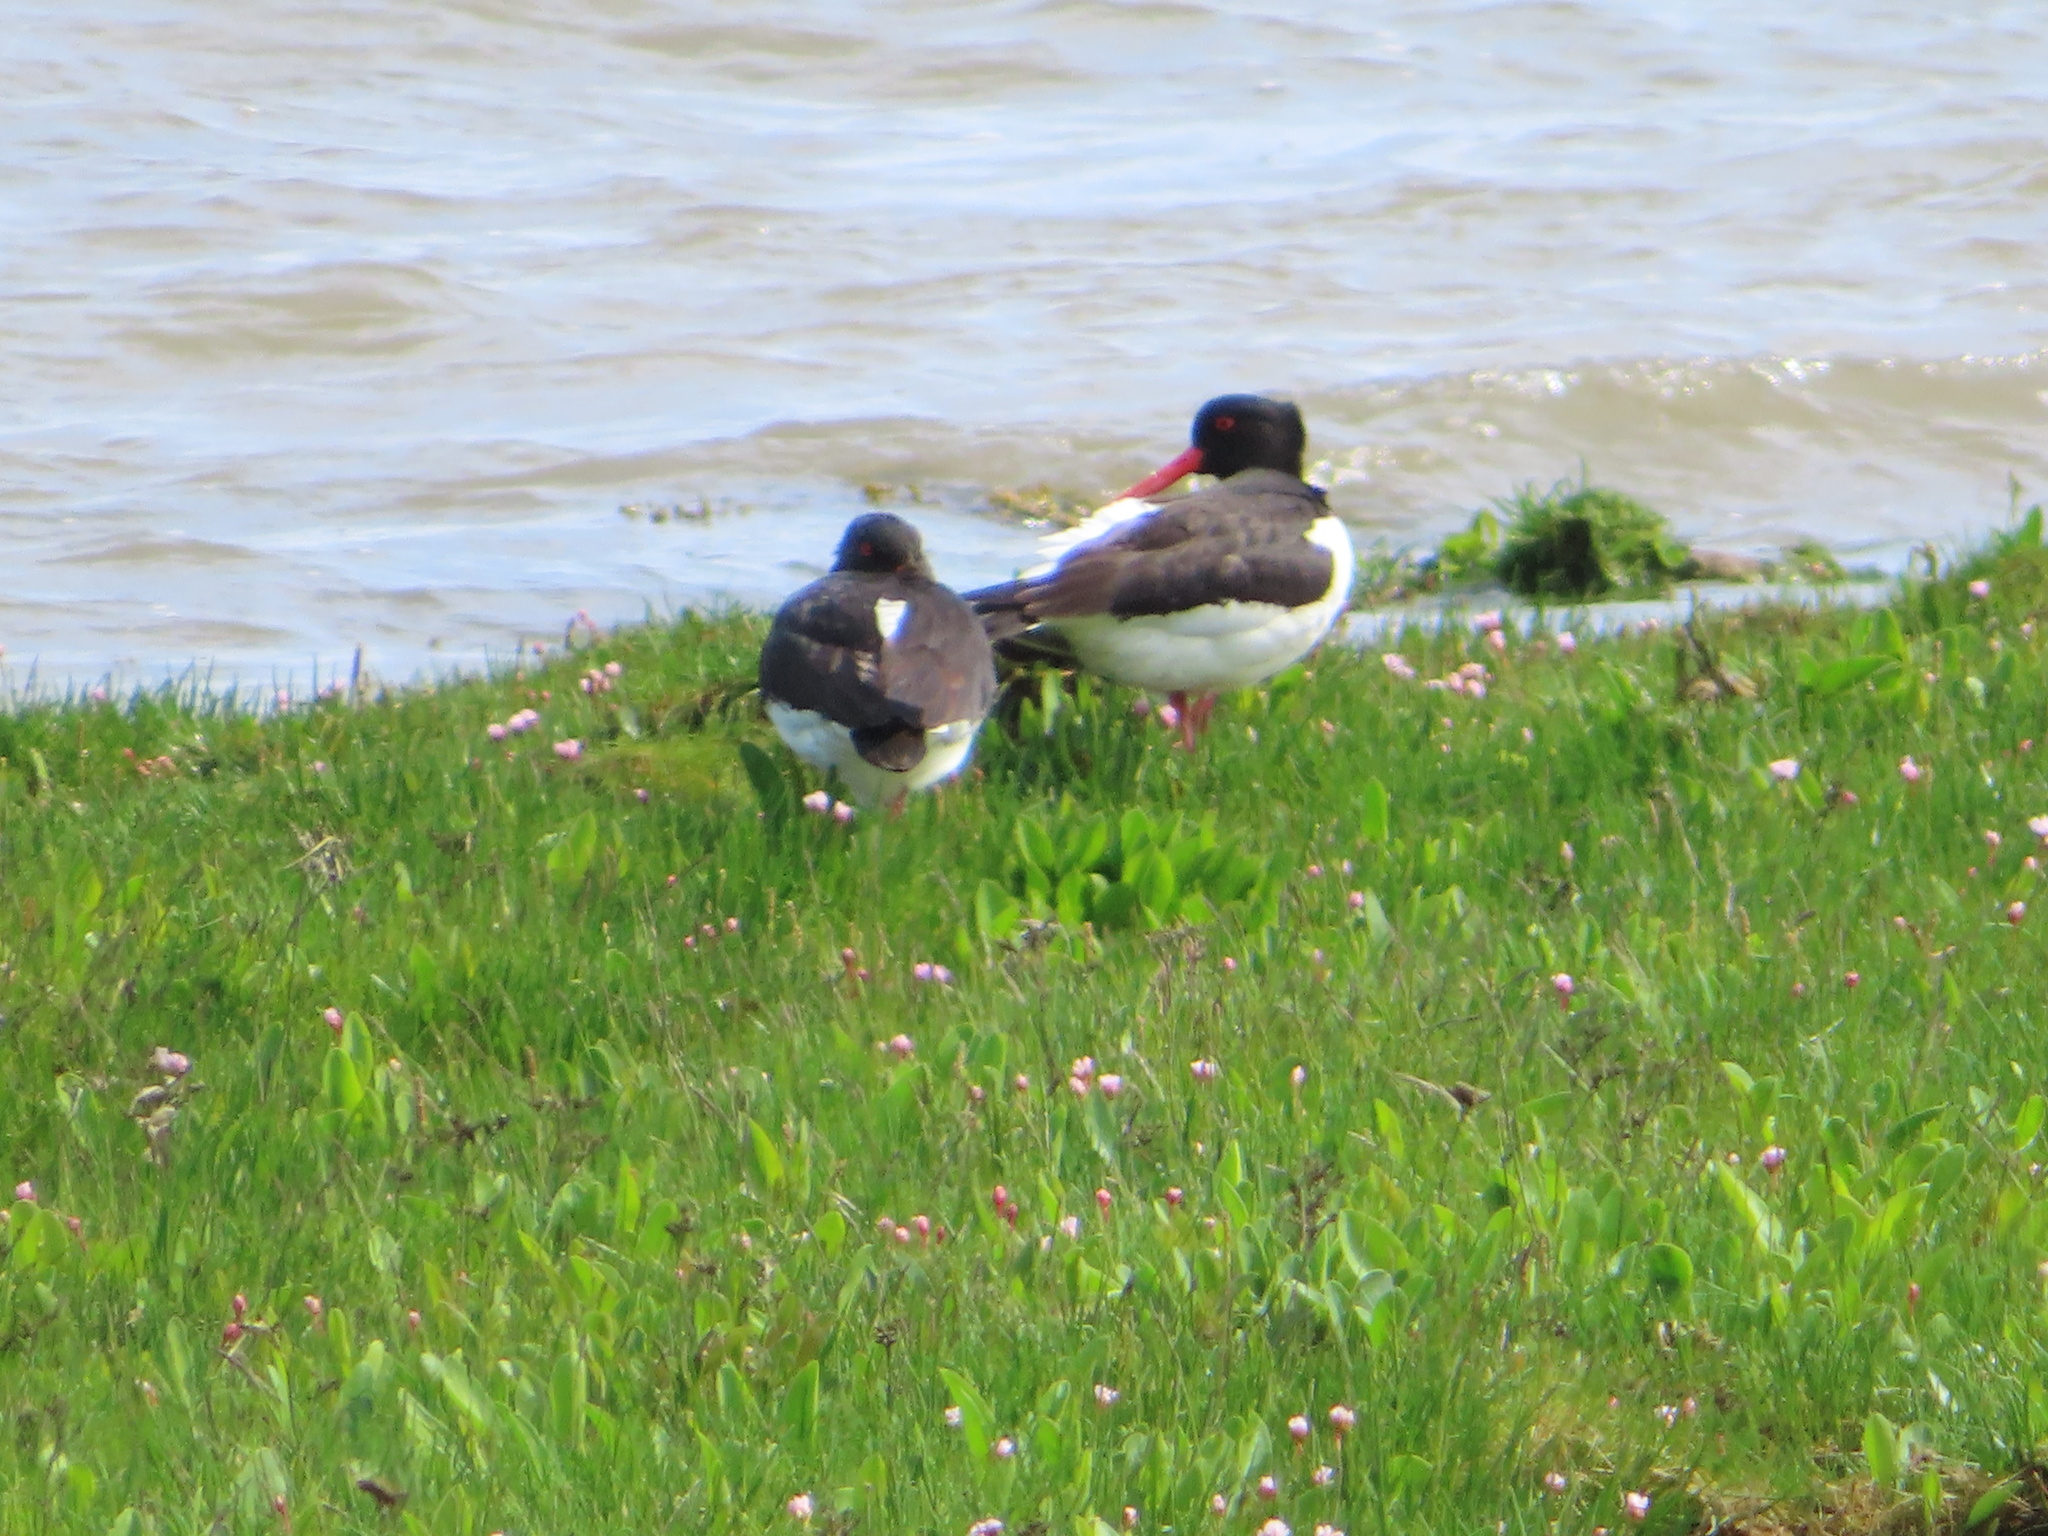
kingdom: Animalia
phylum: Chordata
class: Aves
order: Charadriiformes
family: Haematopodidae
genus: Haematopus
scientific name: Haematopus ostralegus
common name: Eurasian oystercatcher
